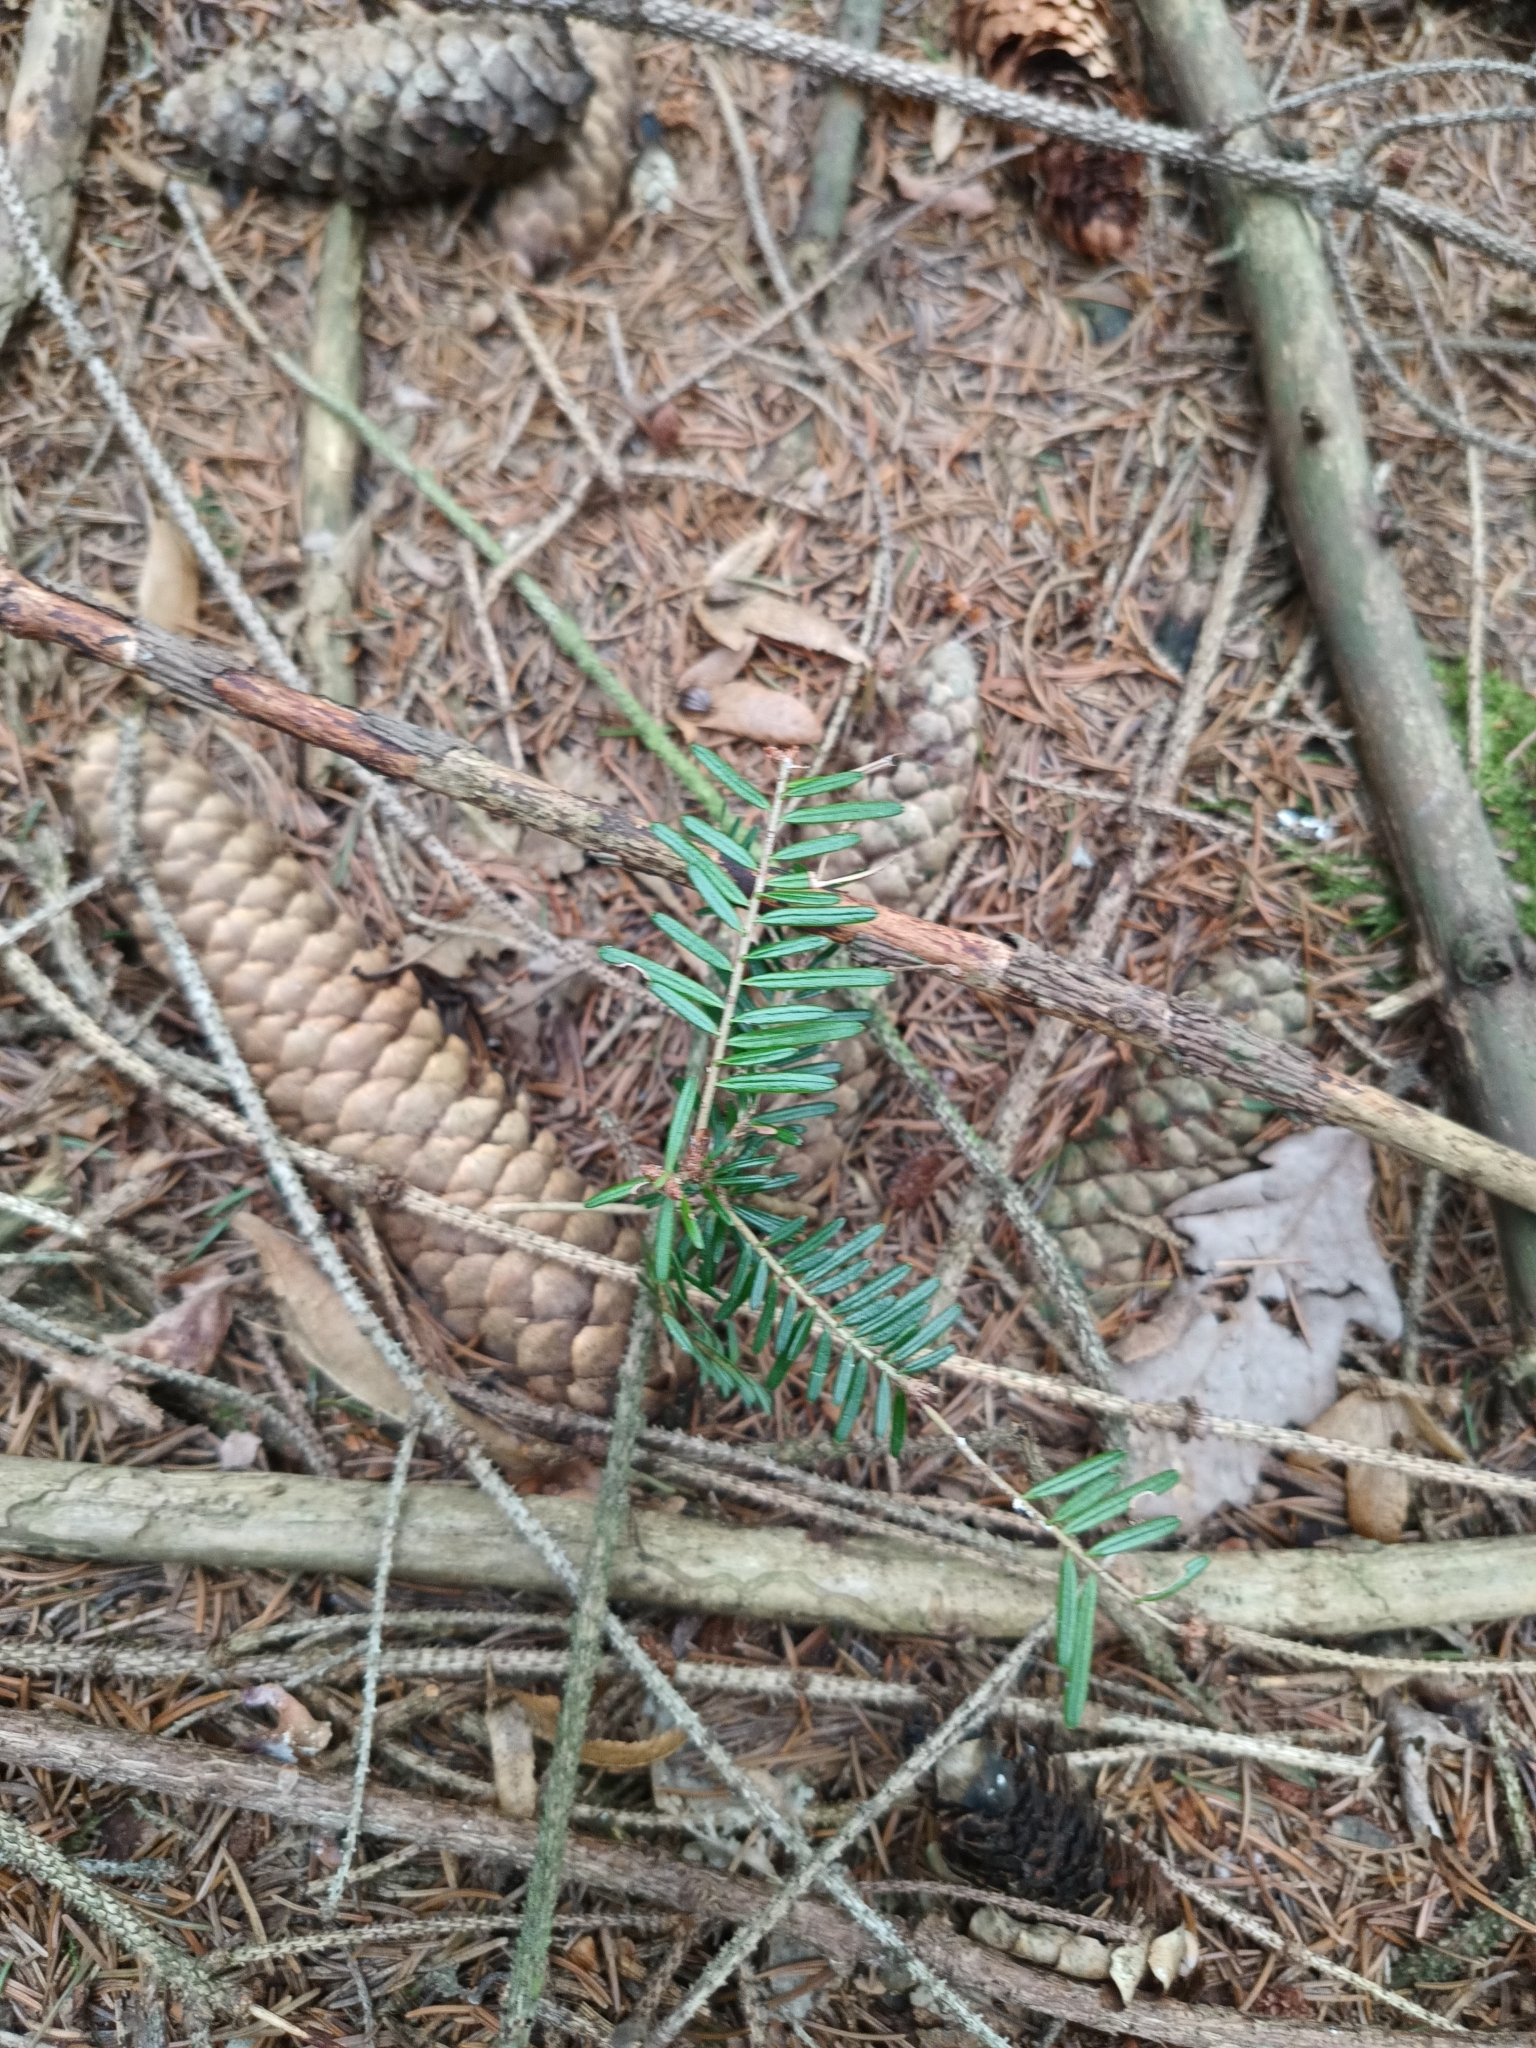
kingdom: Plantae
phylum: Tracheophyta
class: Pinopsida
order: Pinales
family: Pinaceae
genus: Abies
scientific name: Abies alba
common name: Silver fir
